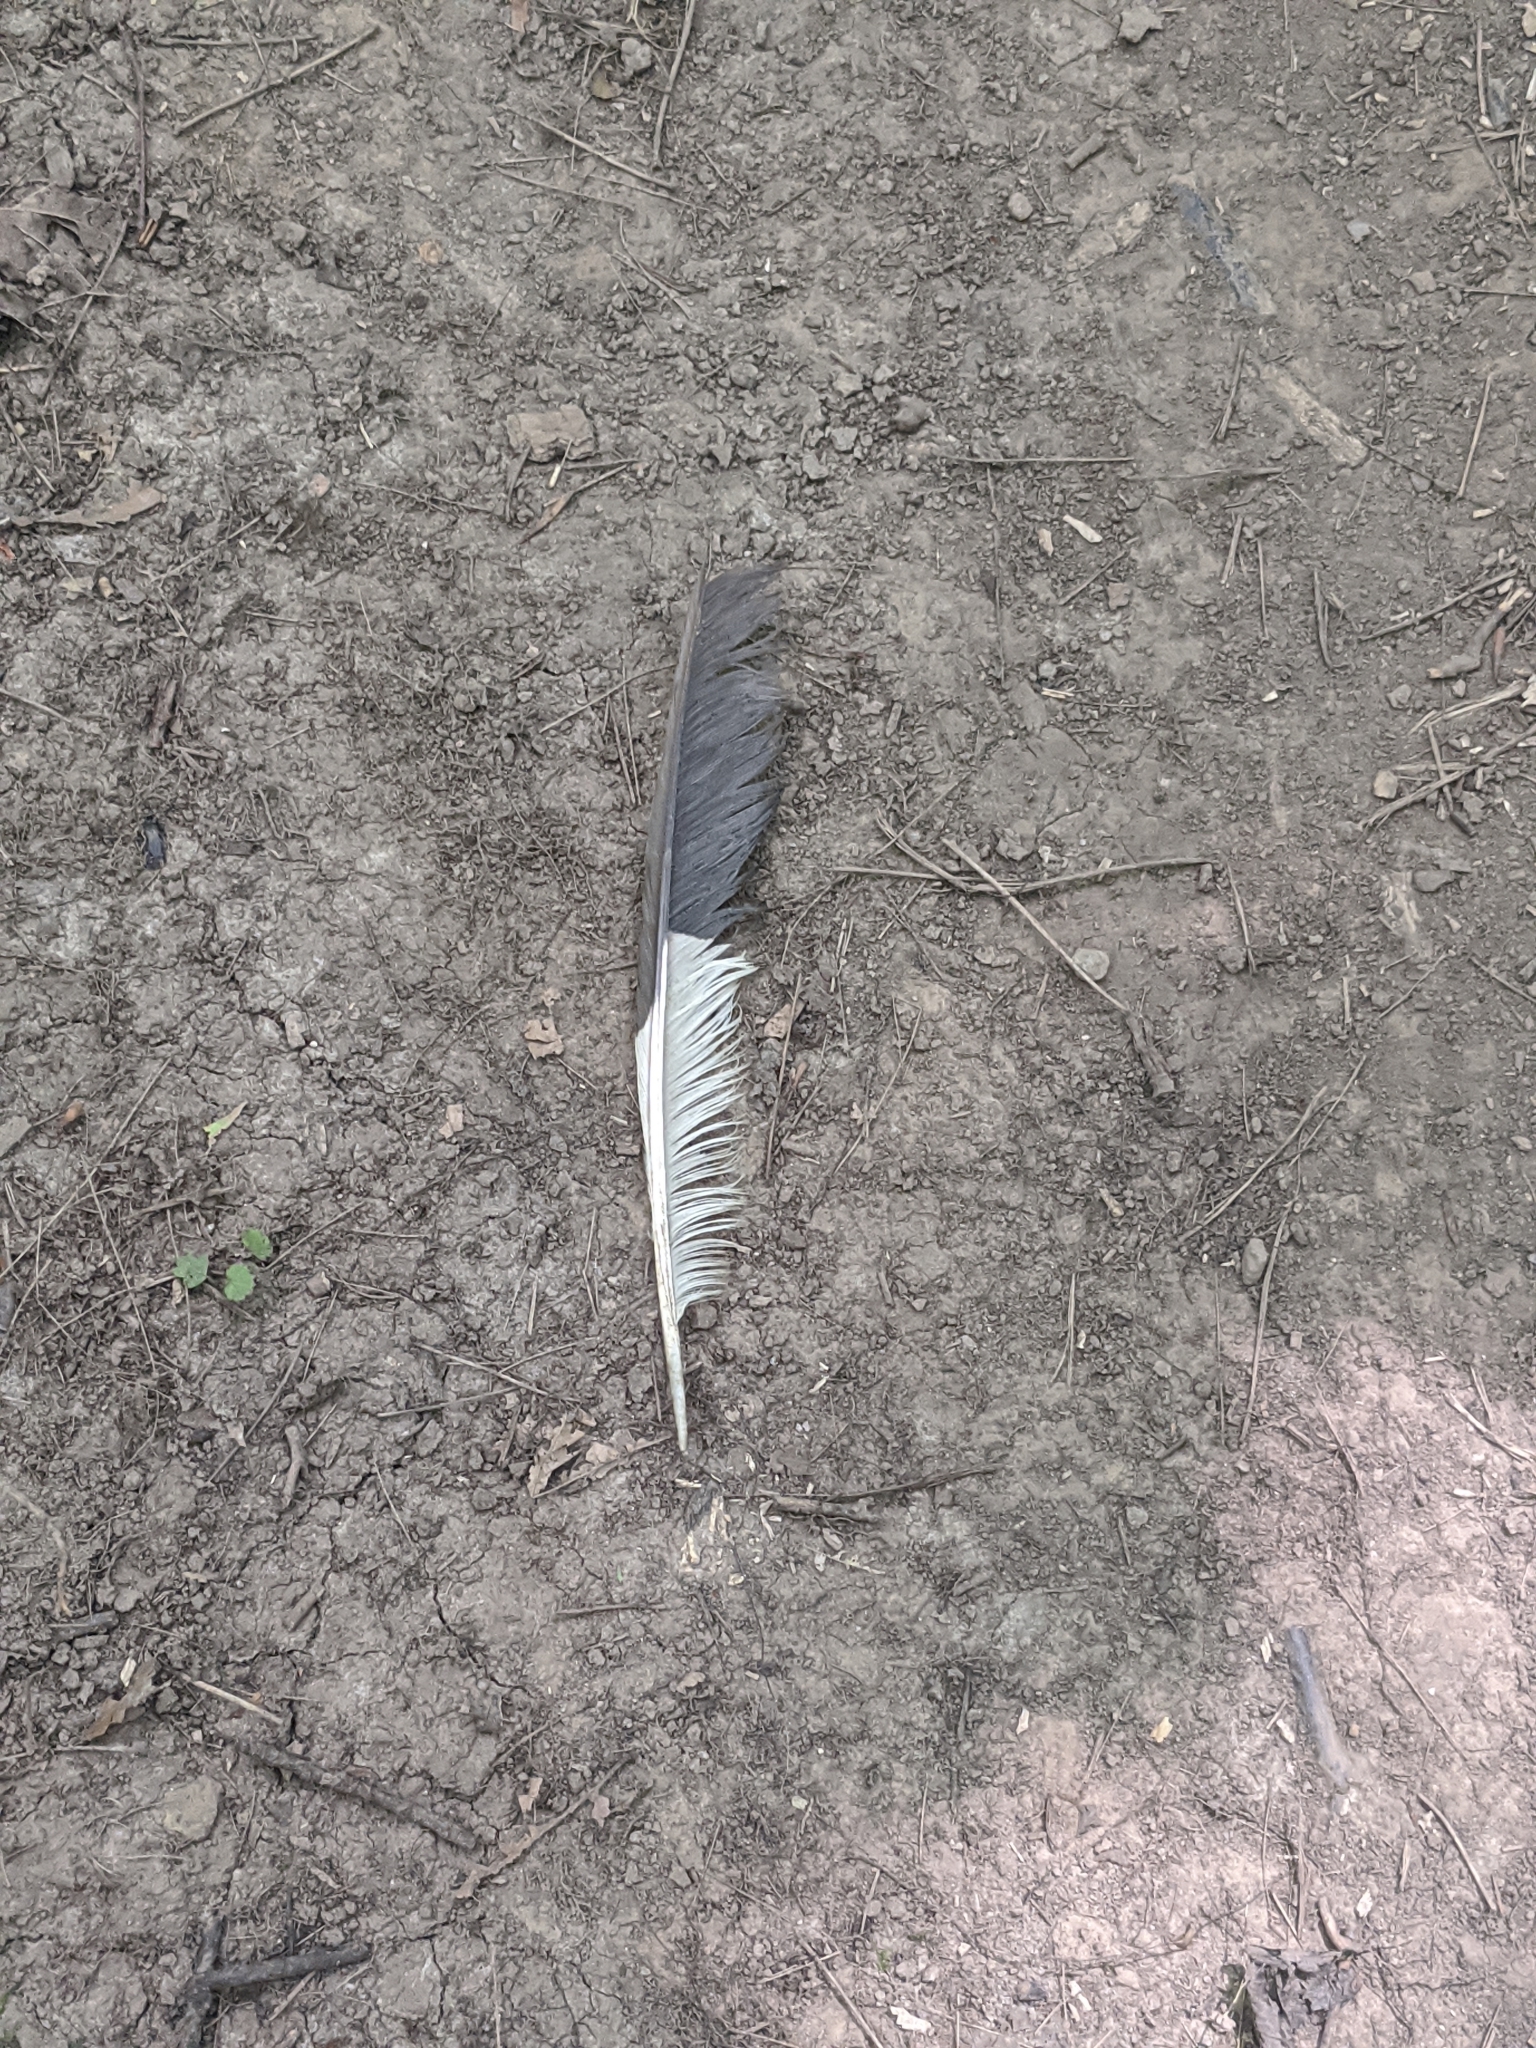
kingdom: Animalia
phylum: Chordata
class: Aves
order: Piciformes
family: Picidae
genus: Dryocopus
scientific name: Dryocopus pileatus
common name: Pileated woodpecker
